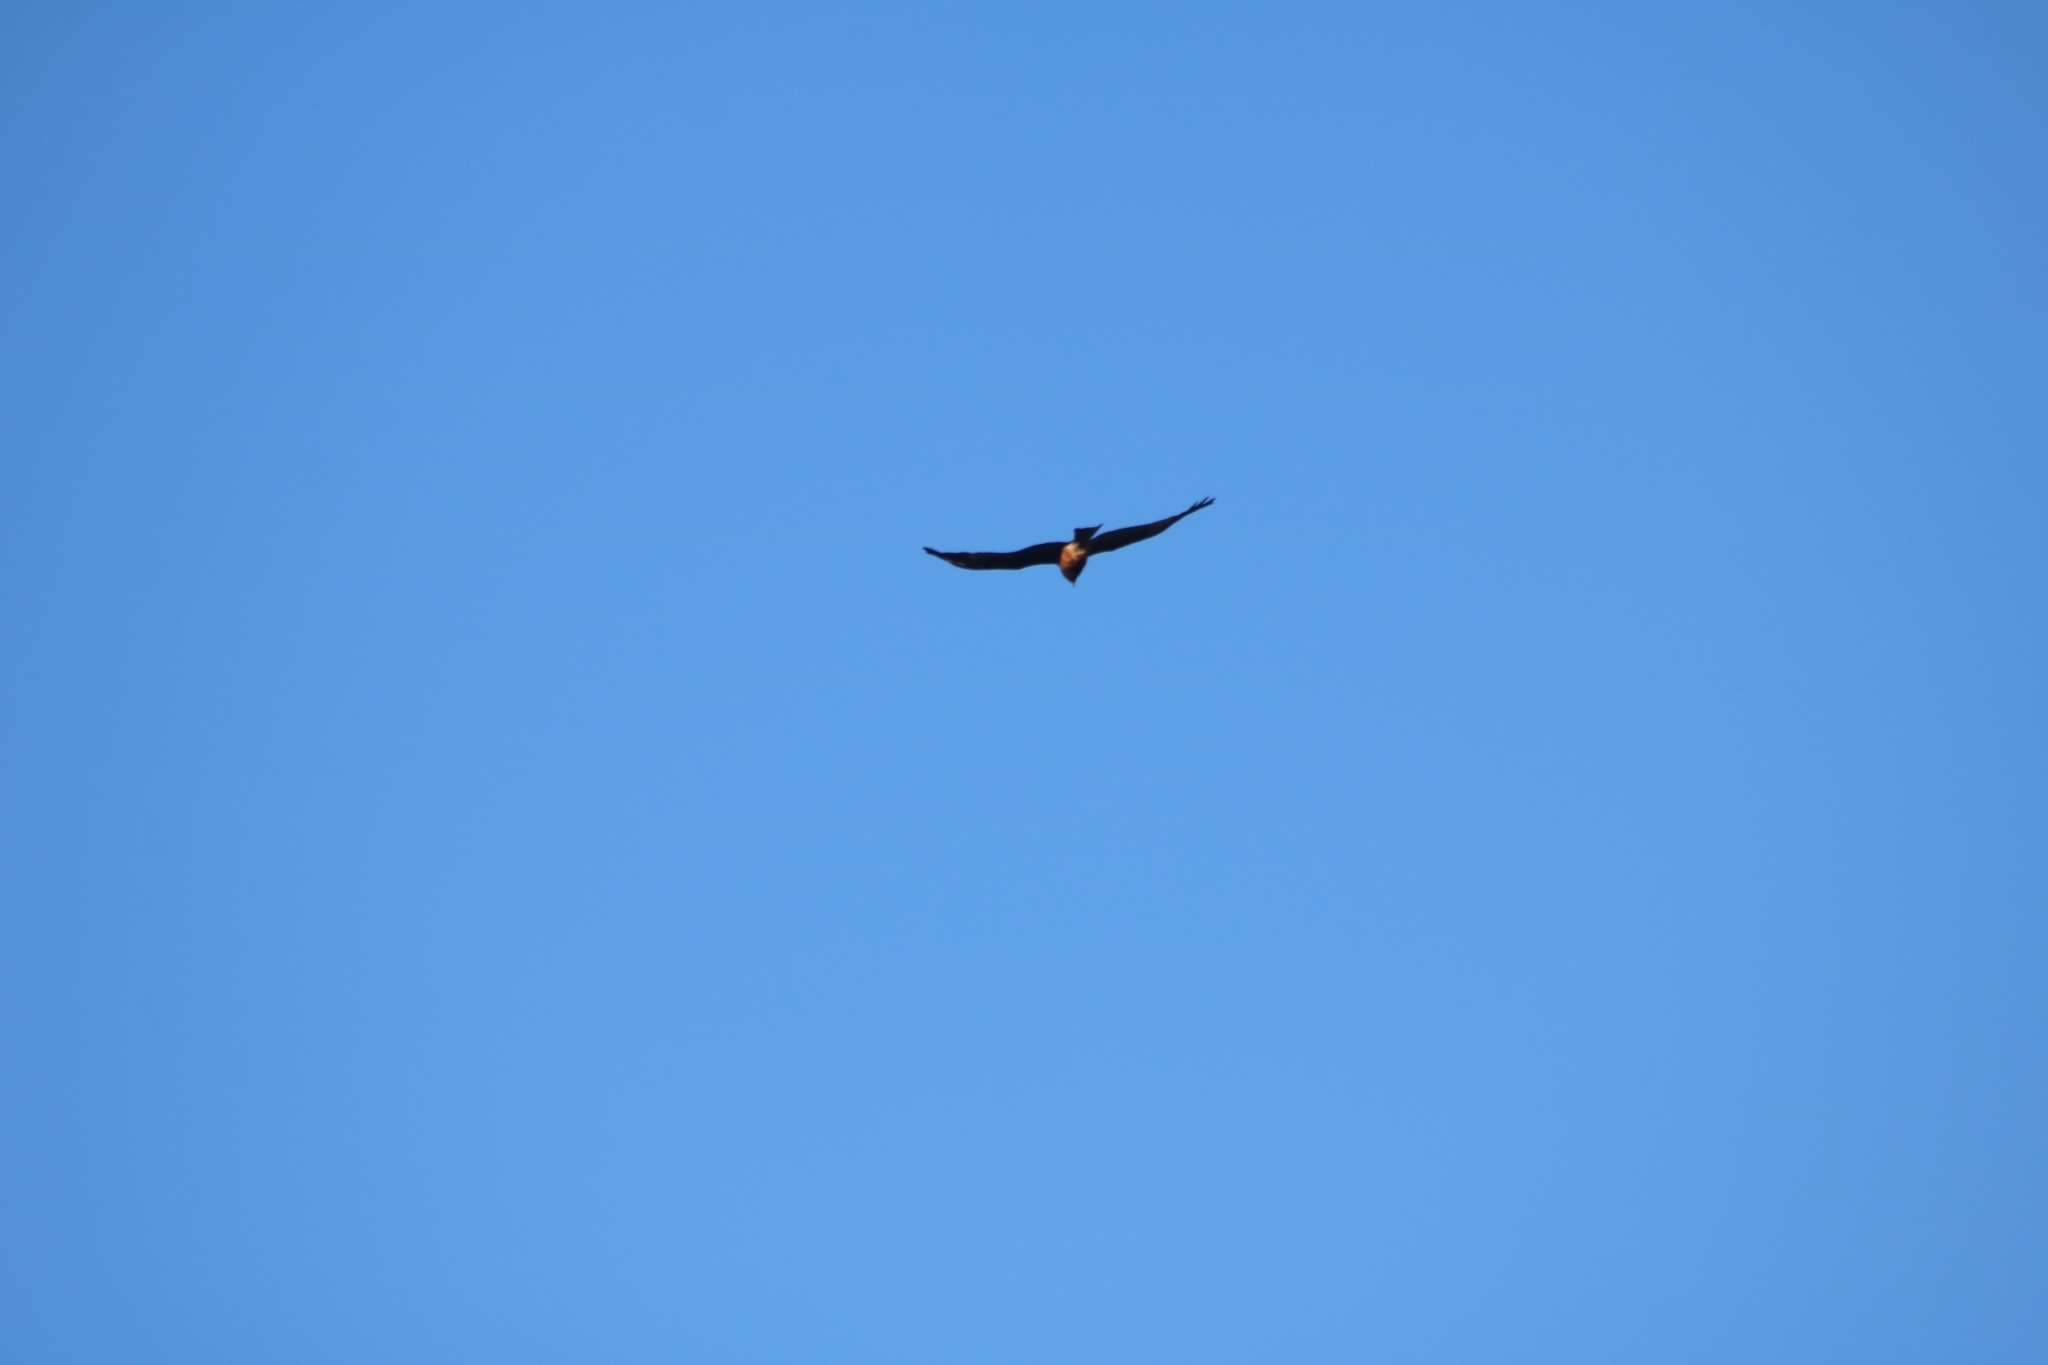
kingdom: Animalia
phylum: Chordata
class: Aves
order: Accipitriformes
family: Accipitridae
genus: Lophoictinia
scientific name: Lophoictinia isura
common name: Square-tailed kite
